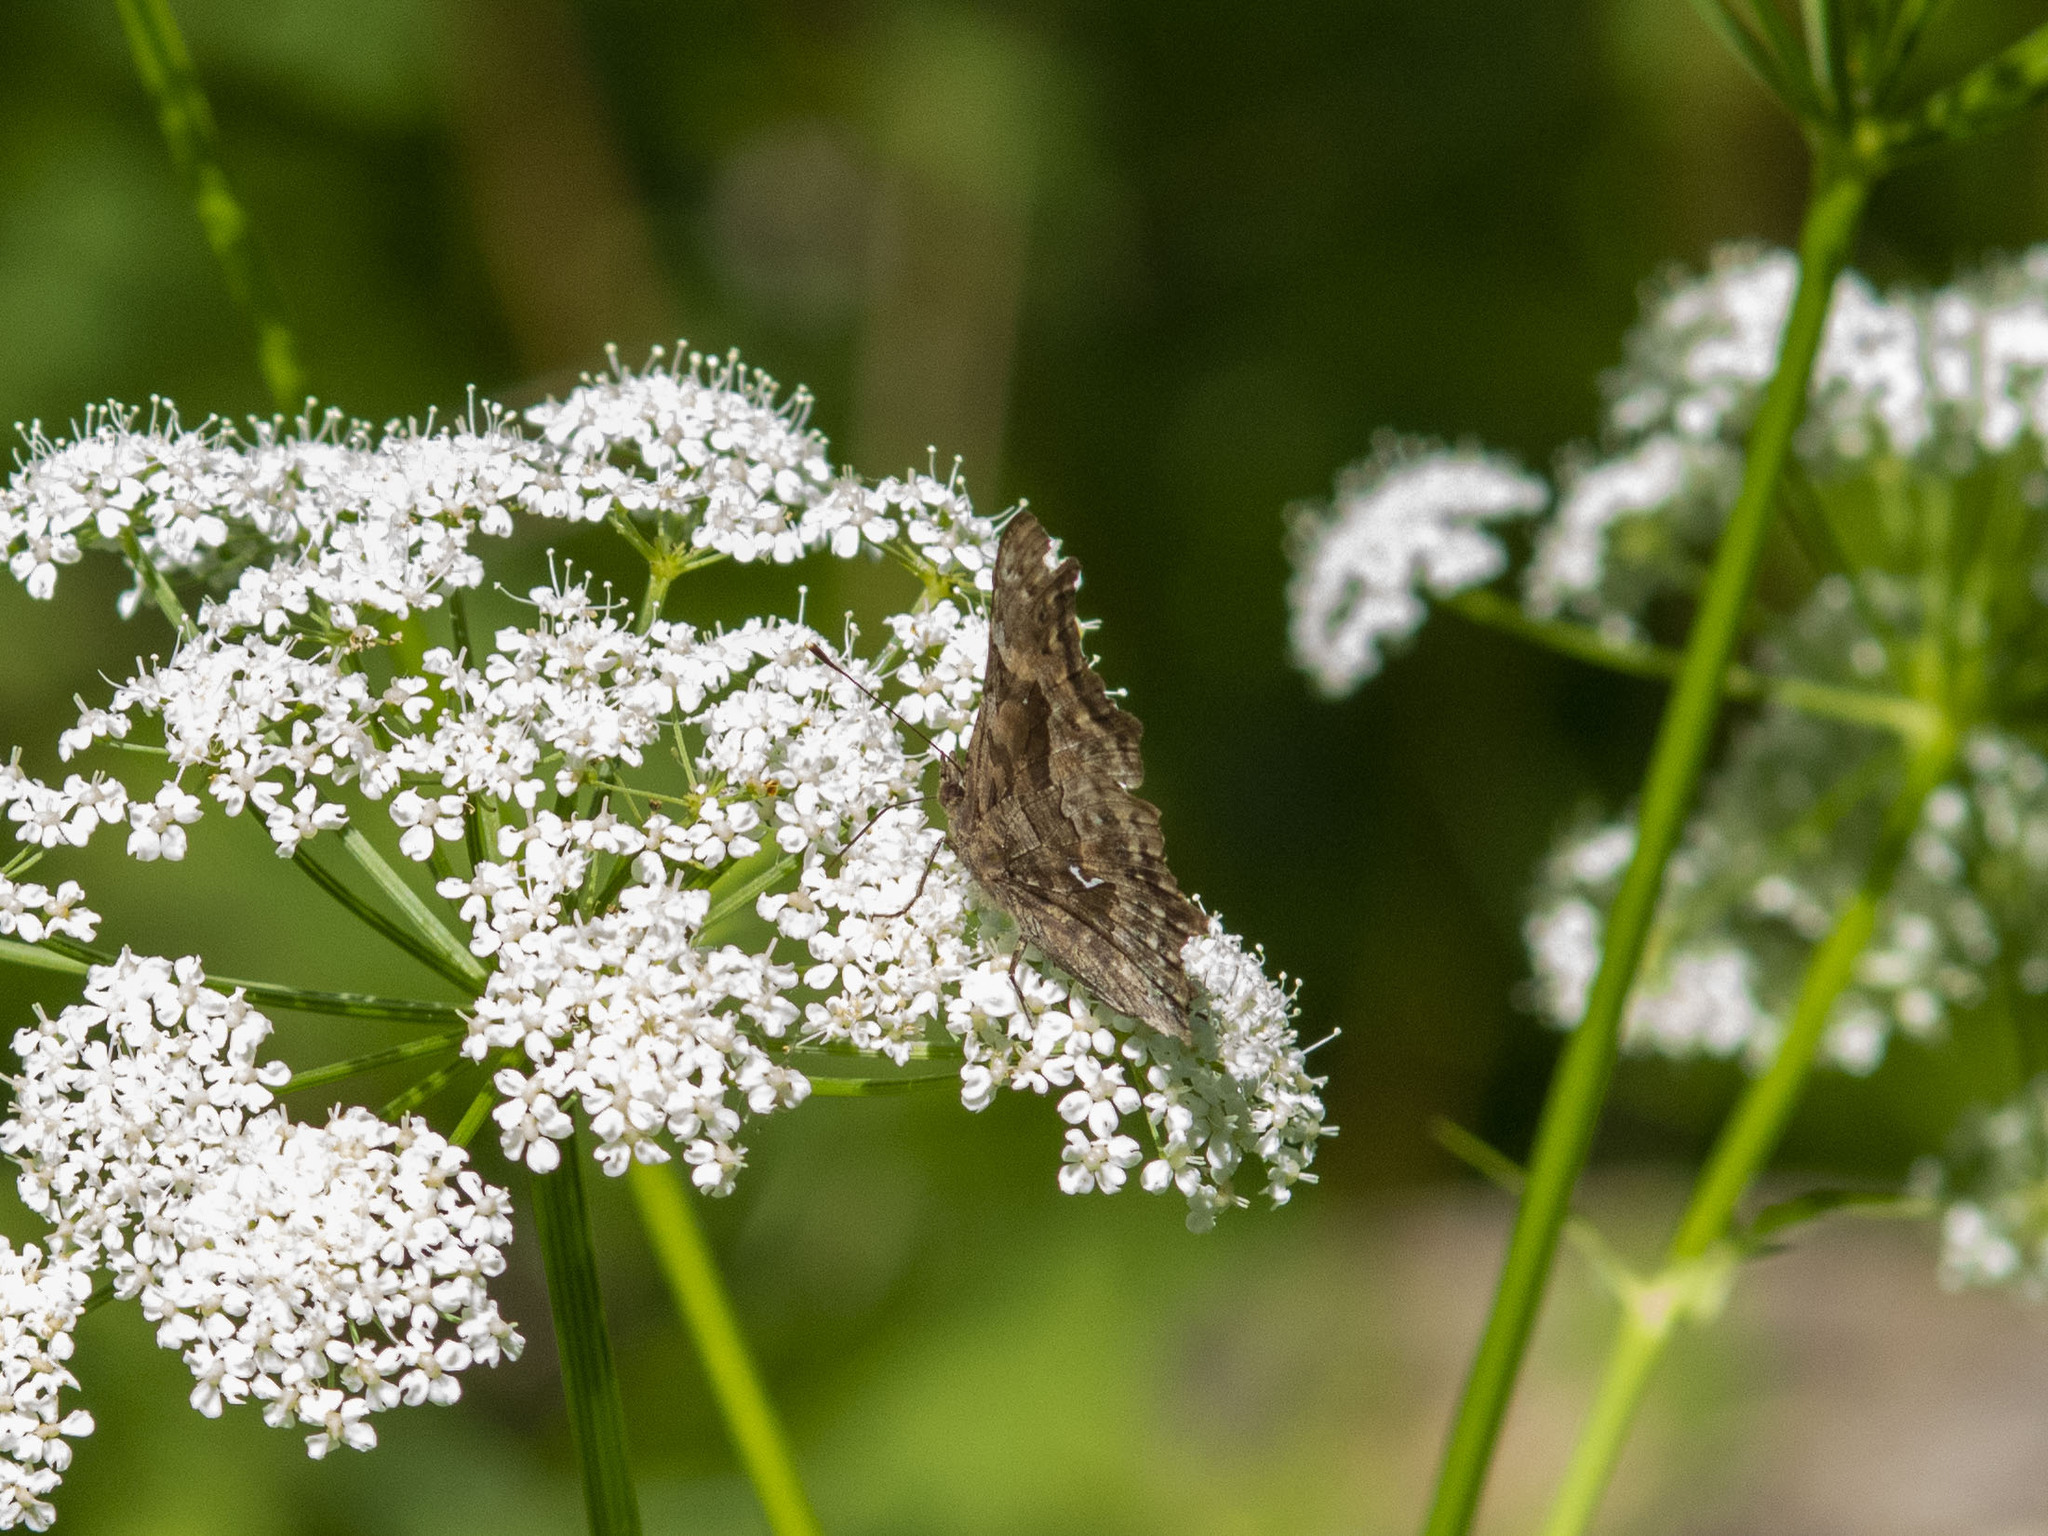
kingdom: Animalia
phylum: Arthropoda
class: Insecta
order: Lepidoptera
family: Nymphalidae
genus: Polygonia
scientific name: Polygonia c-album
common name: Comma
